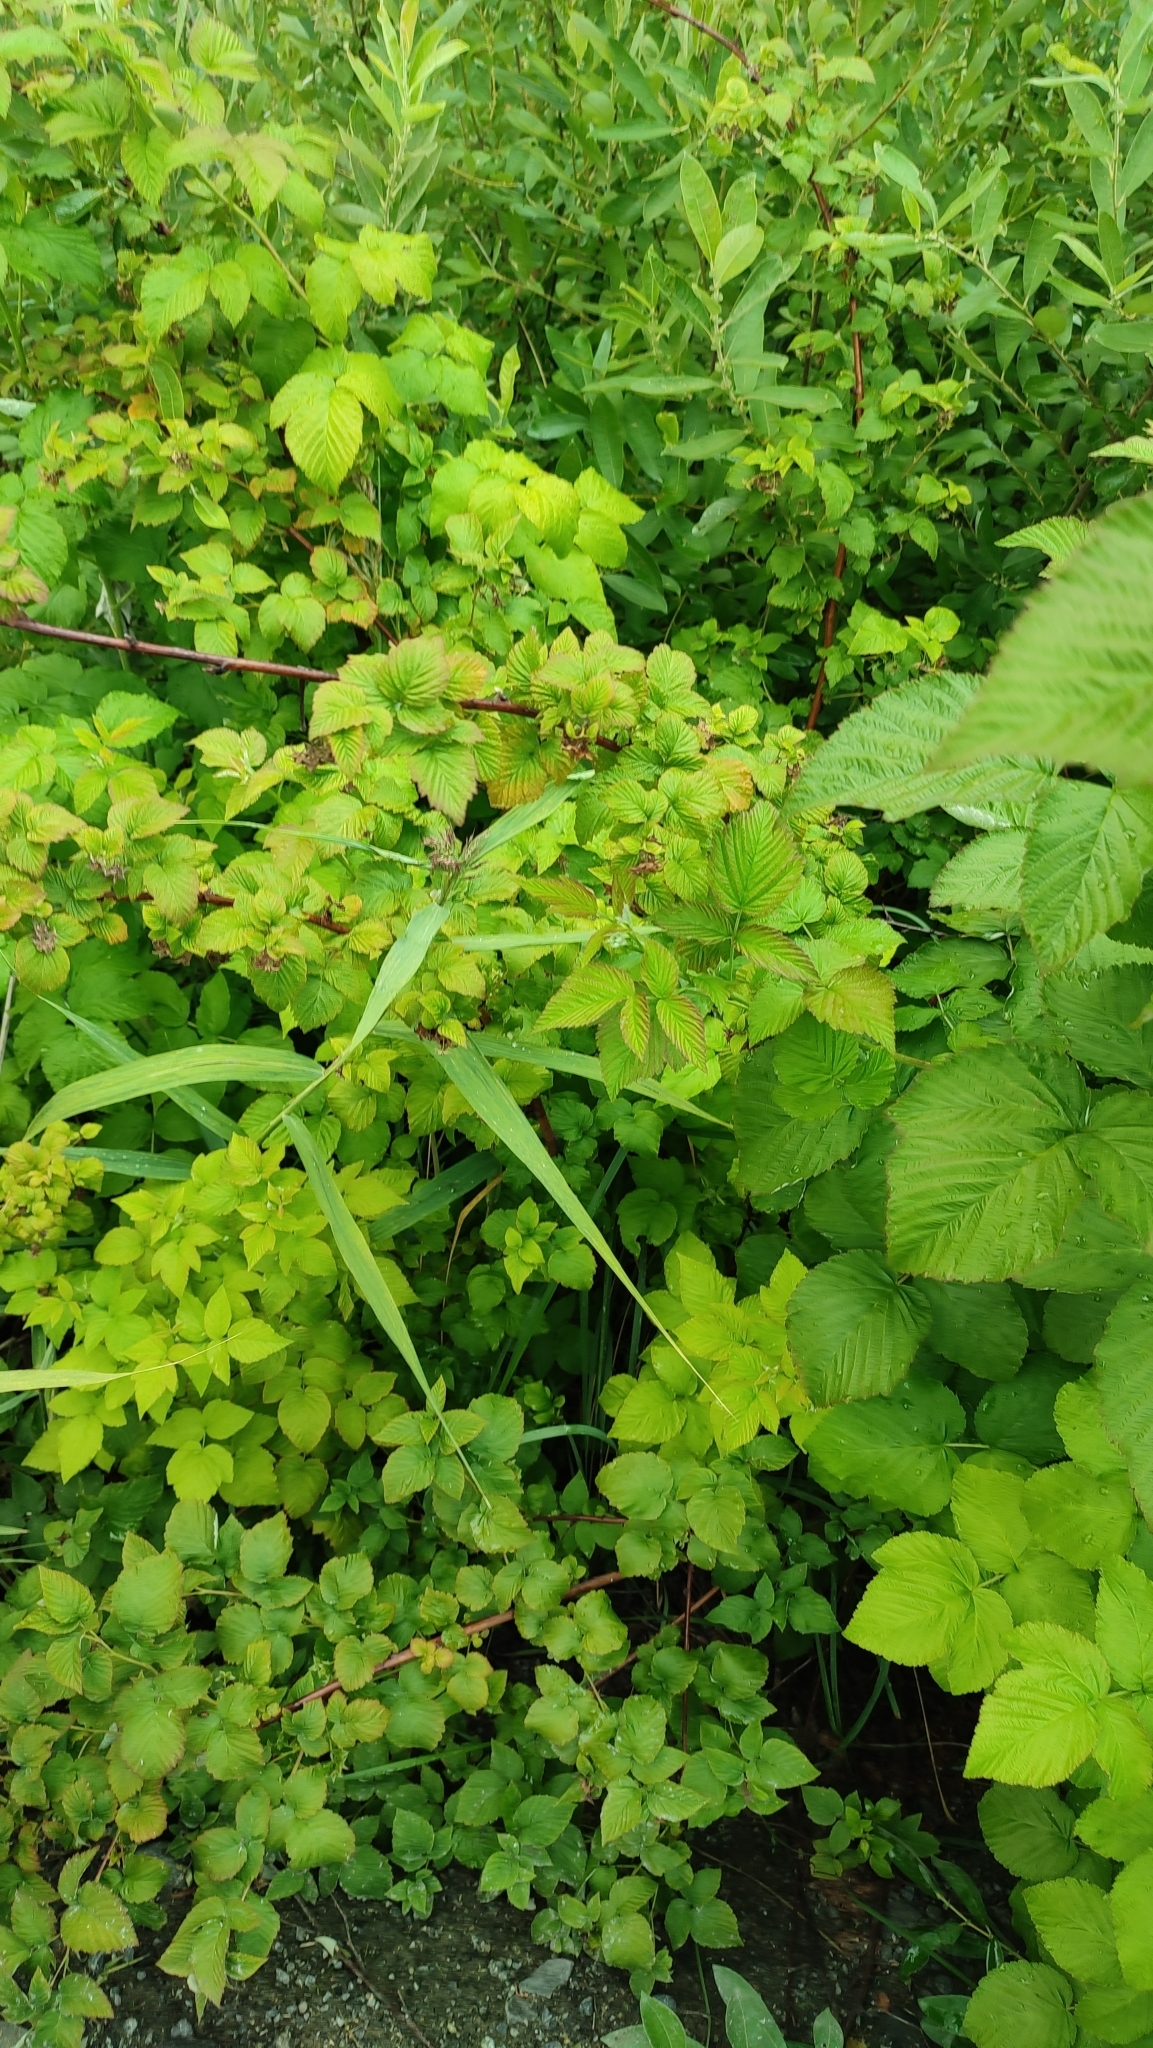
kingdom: Plantae
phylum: Tracheophyta
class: Magnoliopsida
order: Rosales
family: Rosaceae
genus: Rubus
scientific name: Rubus idaeus
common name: Raspberry
